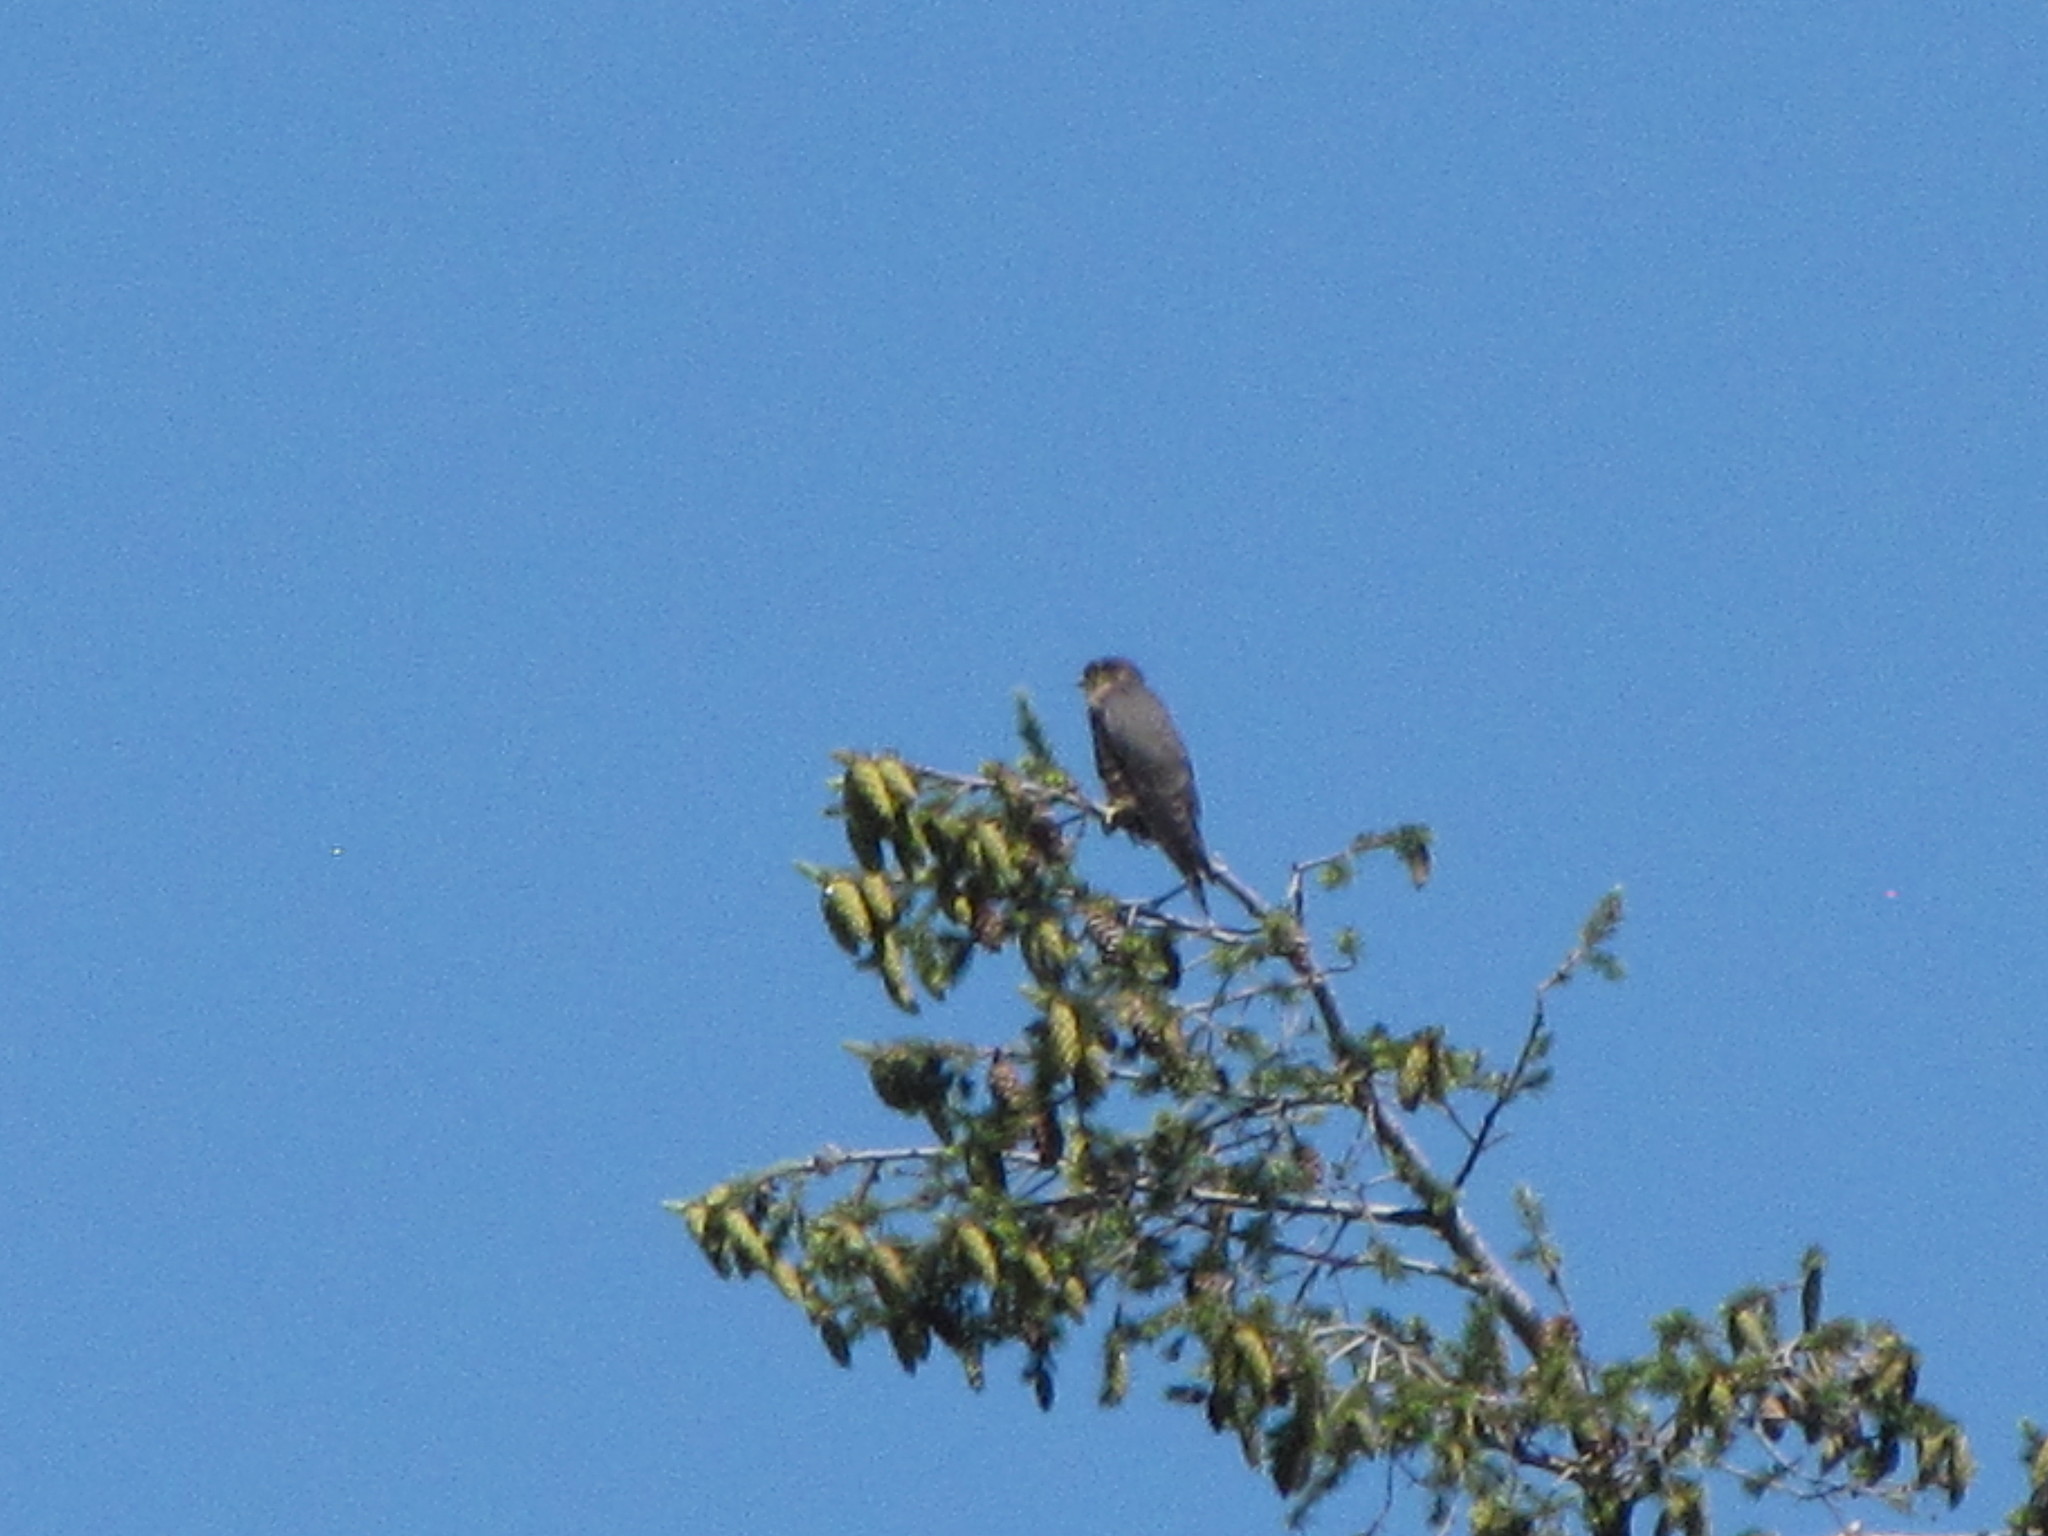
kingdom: Animalia
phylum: Chordata
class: Aves
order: Falconiformes
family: Falconidae
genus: Falco
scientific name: Falco columbarius
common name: Merlin
